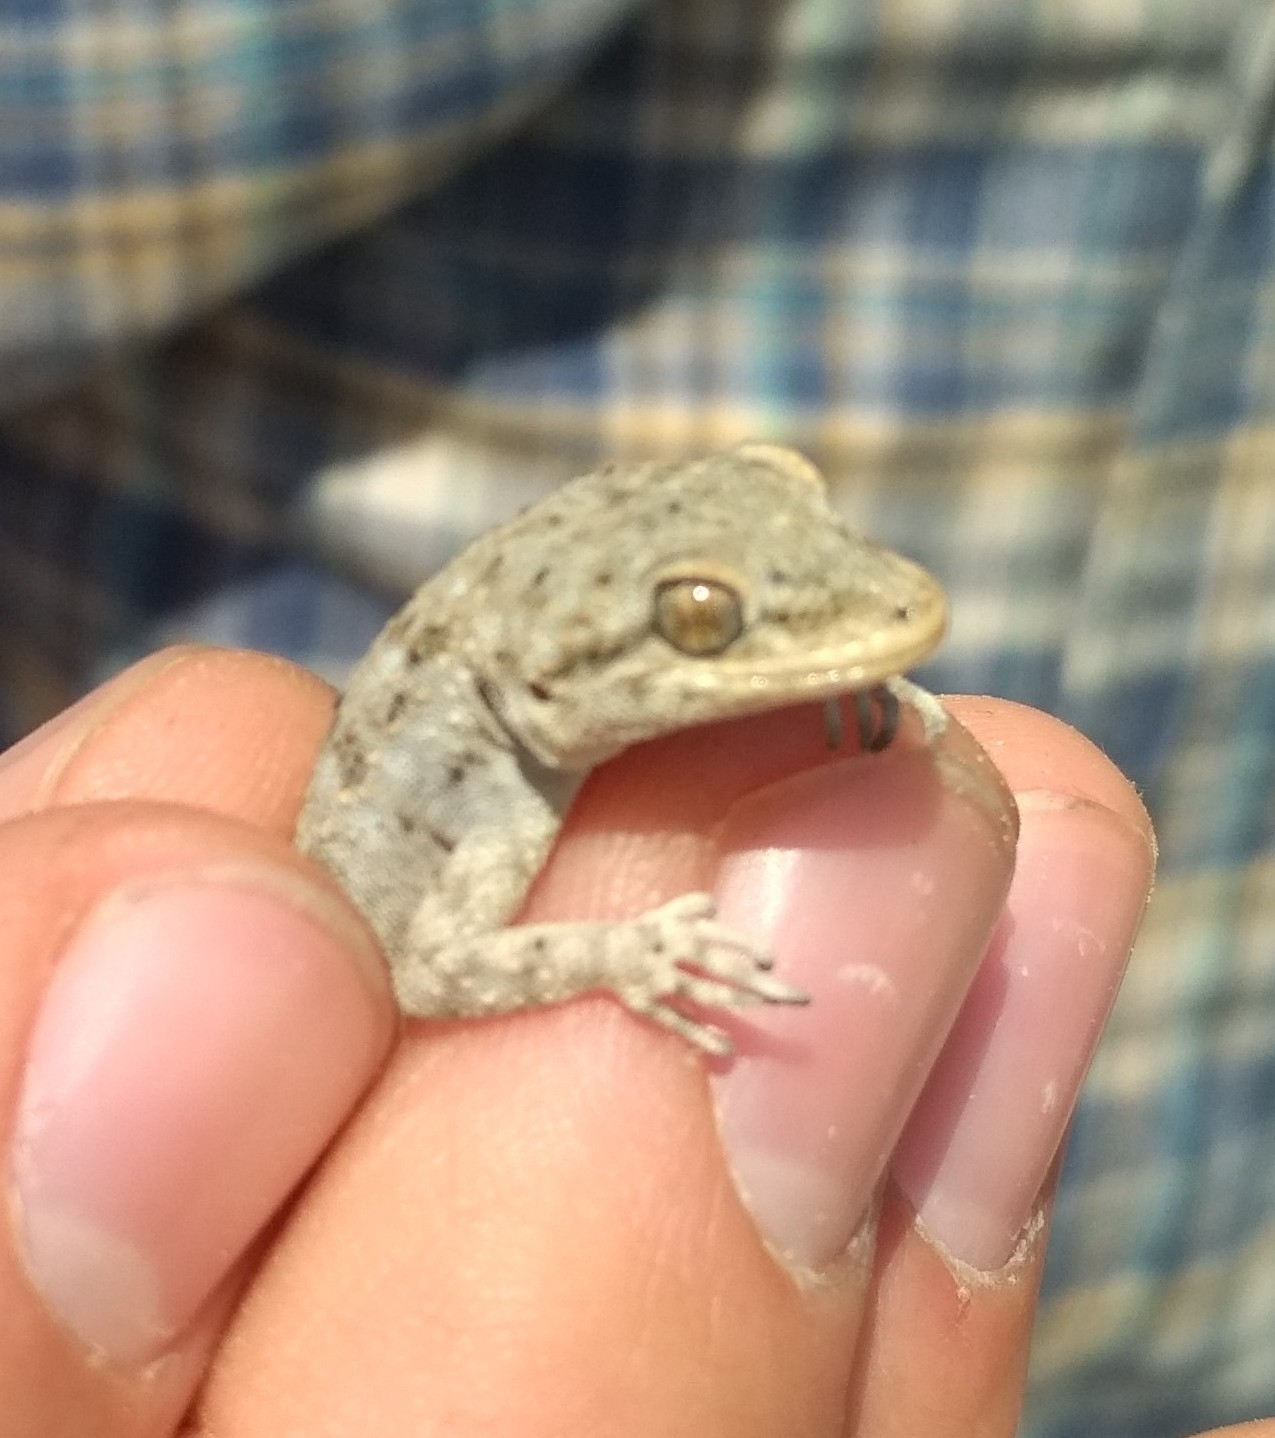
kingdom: Animalia
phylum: Chordata
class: Squamata
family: Gekkonidae
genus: Mediodactylus
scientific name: Mediodactylus
